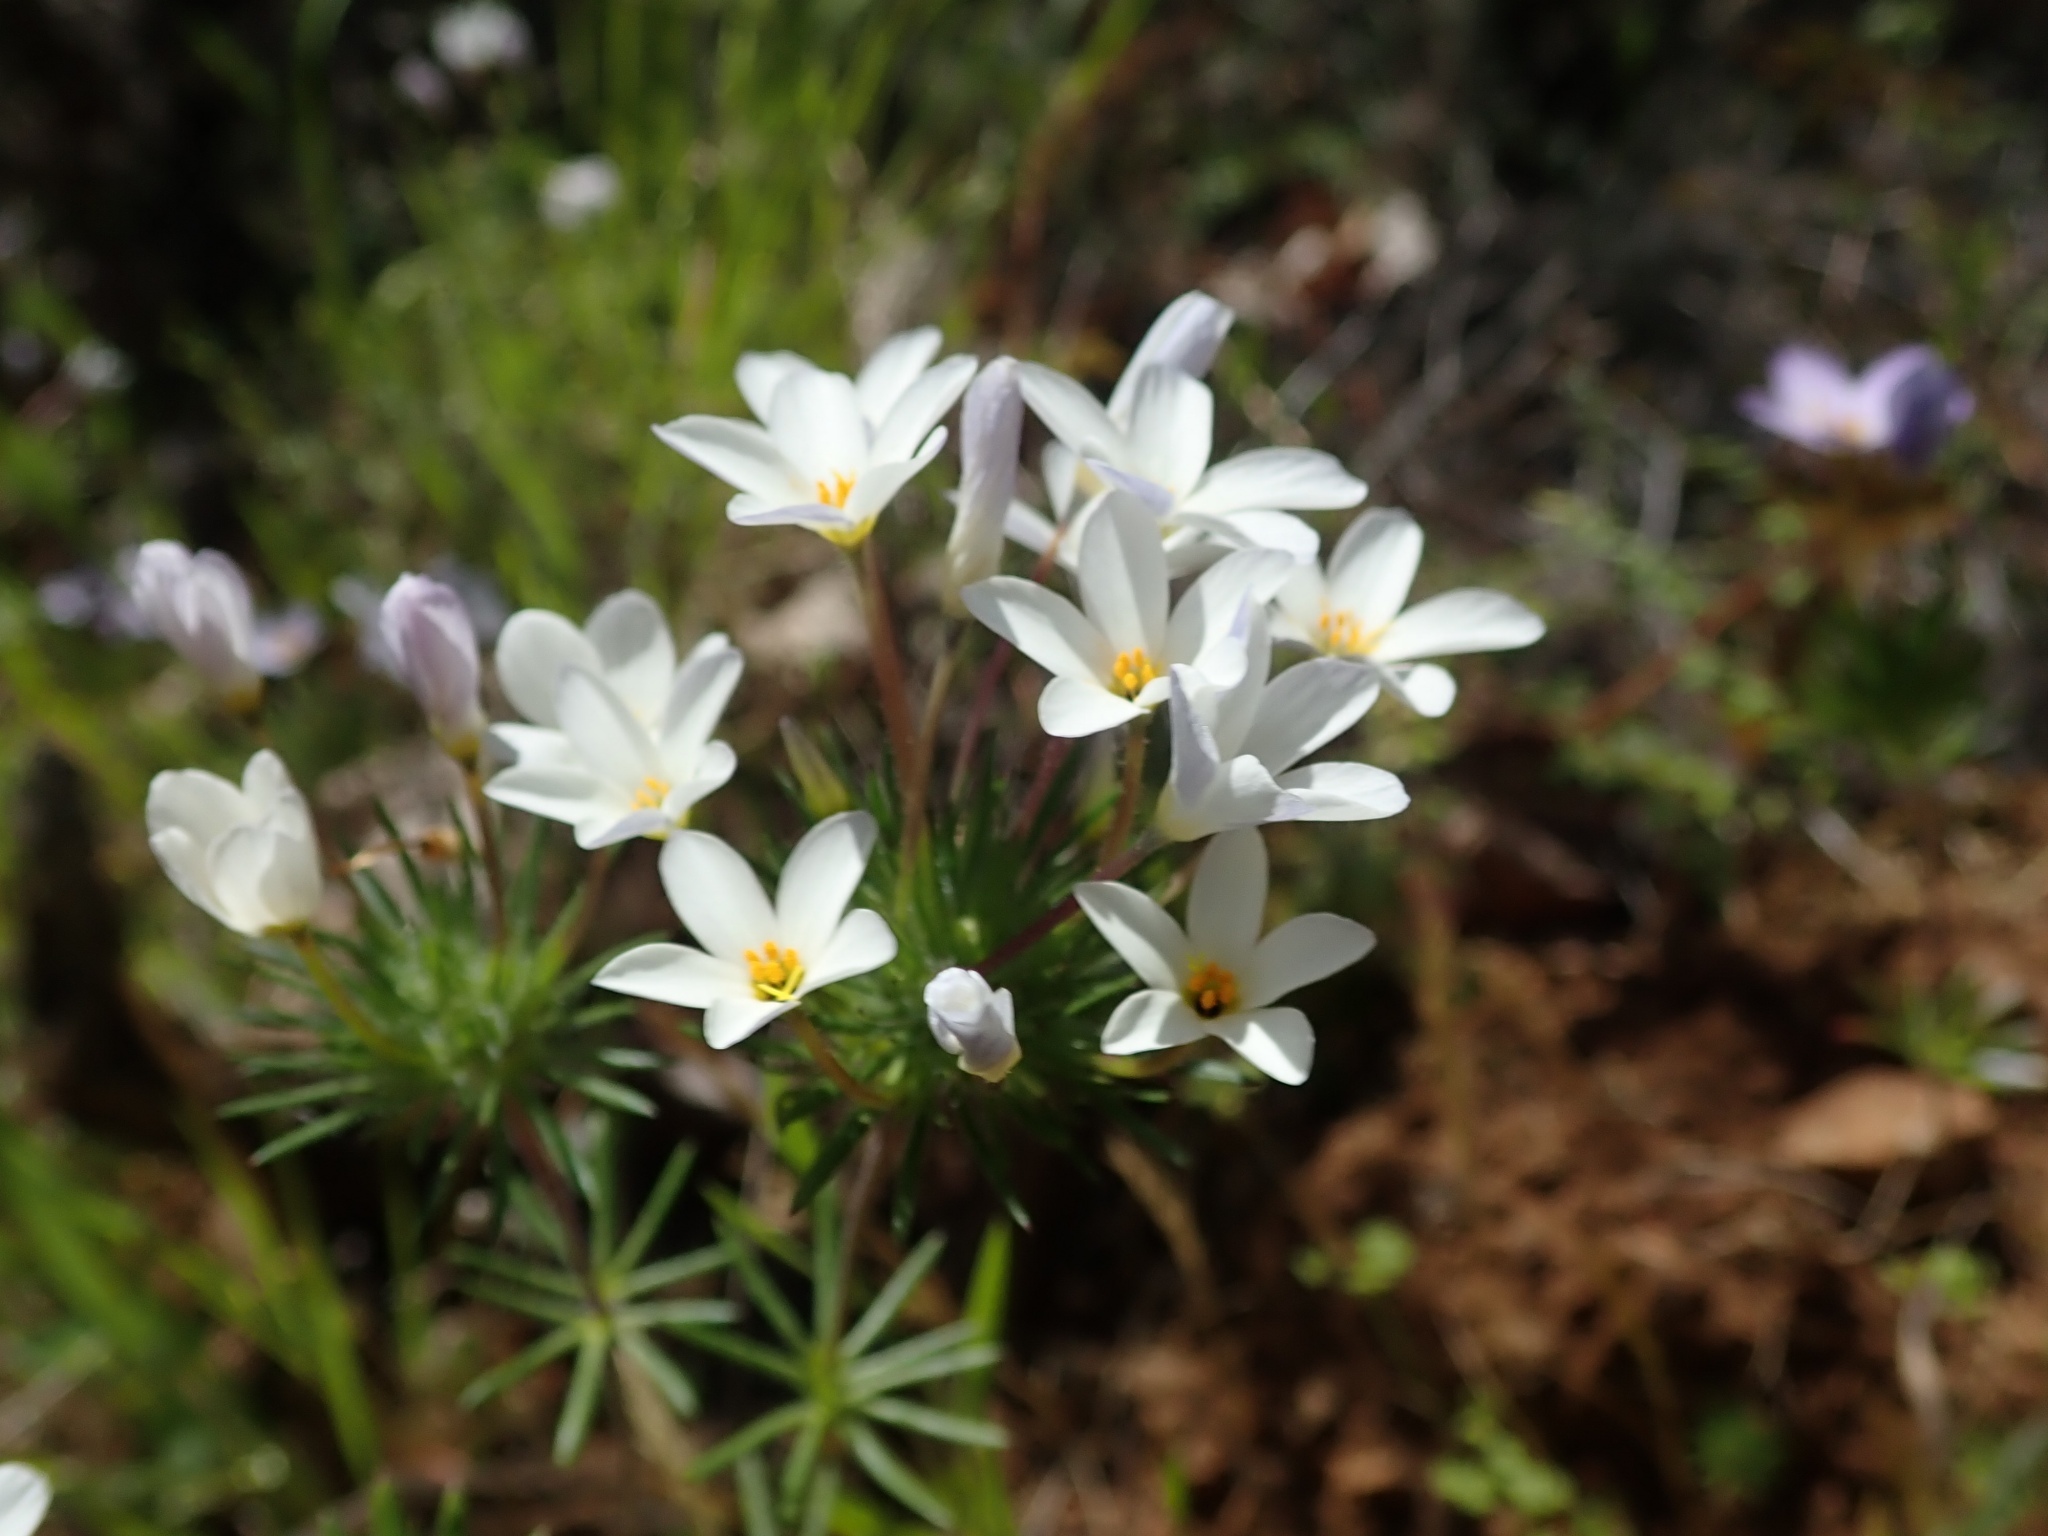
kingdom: Plantae
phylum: Tracheophyta
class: Magnoliopsida
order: Ericales
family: Polemoniaceae
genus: Leptosiphon
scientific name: Leptosiphon androsaceus
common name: False babystars
